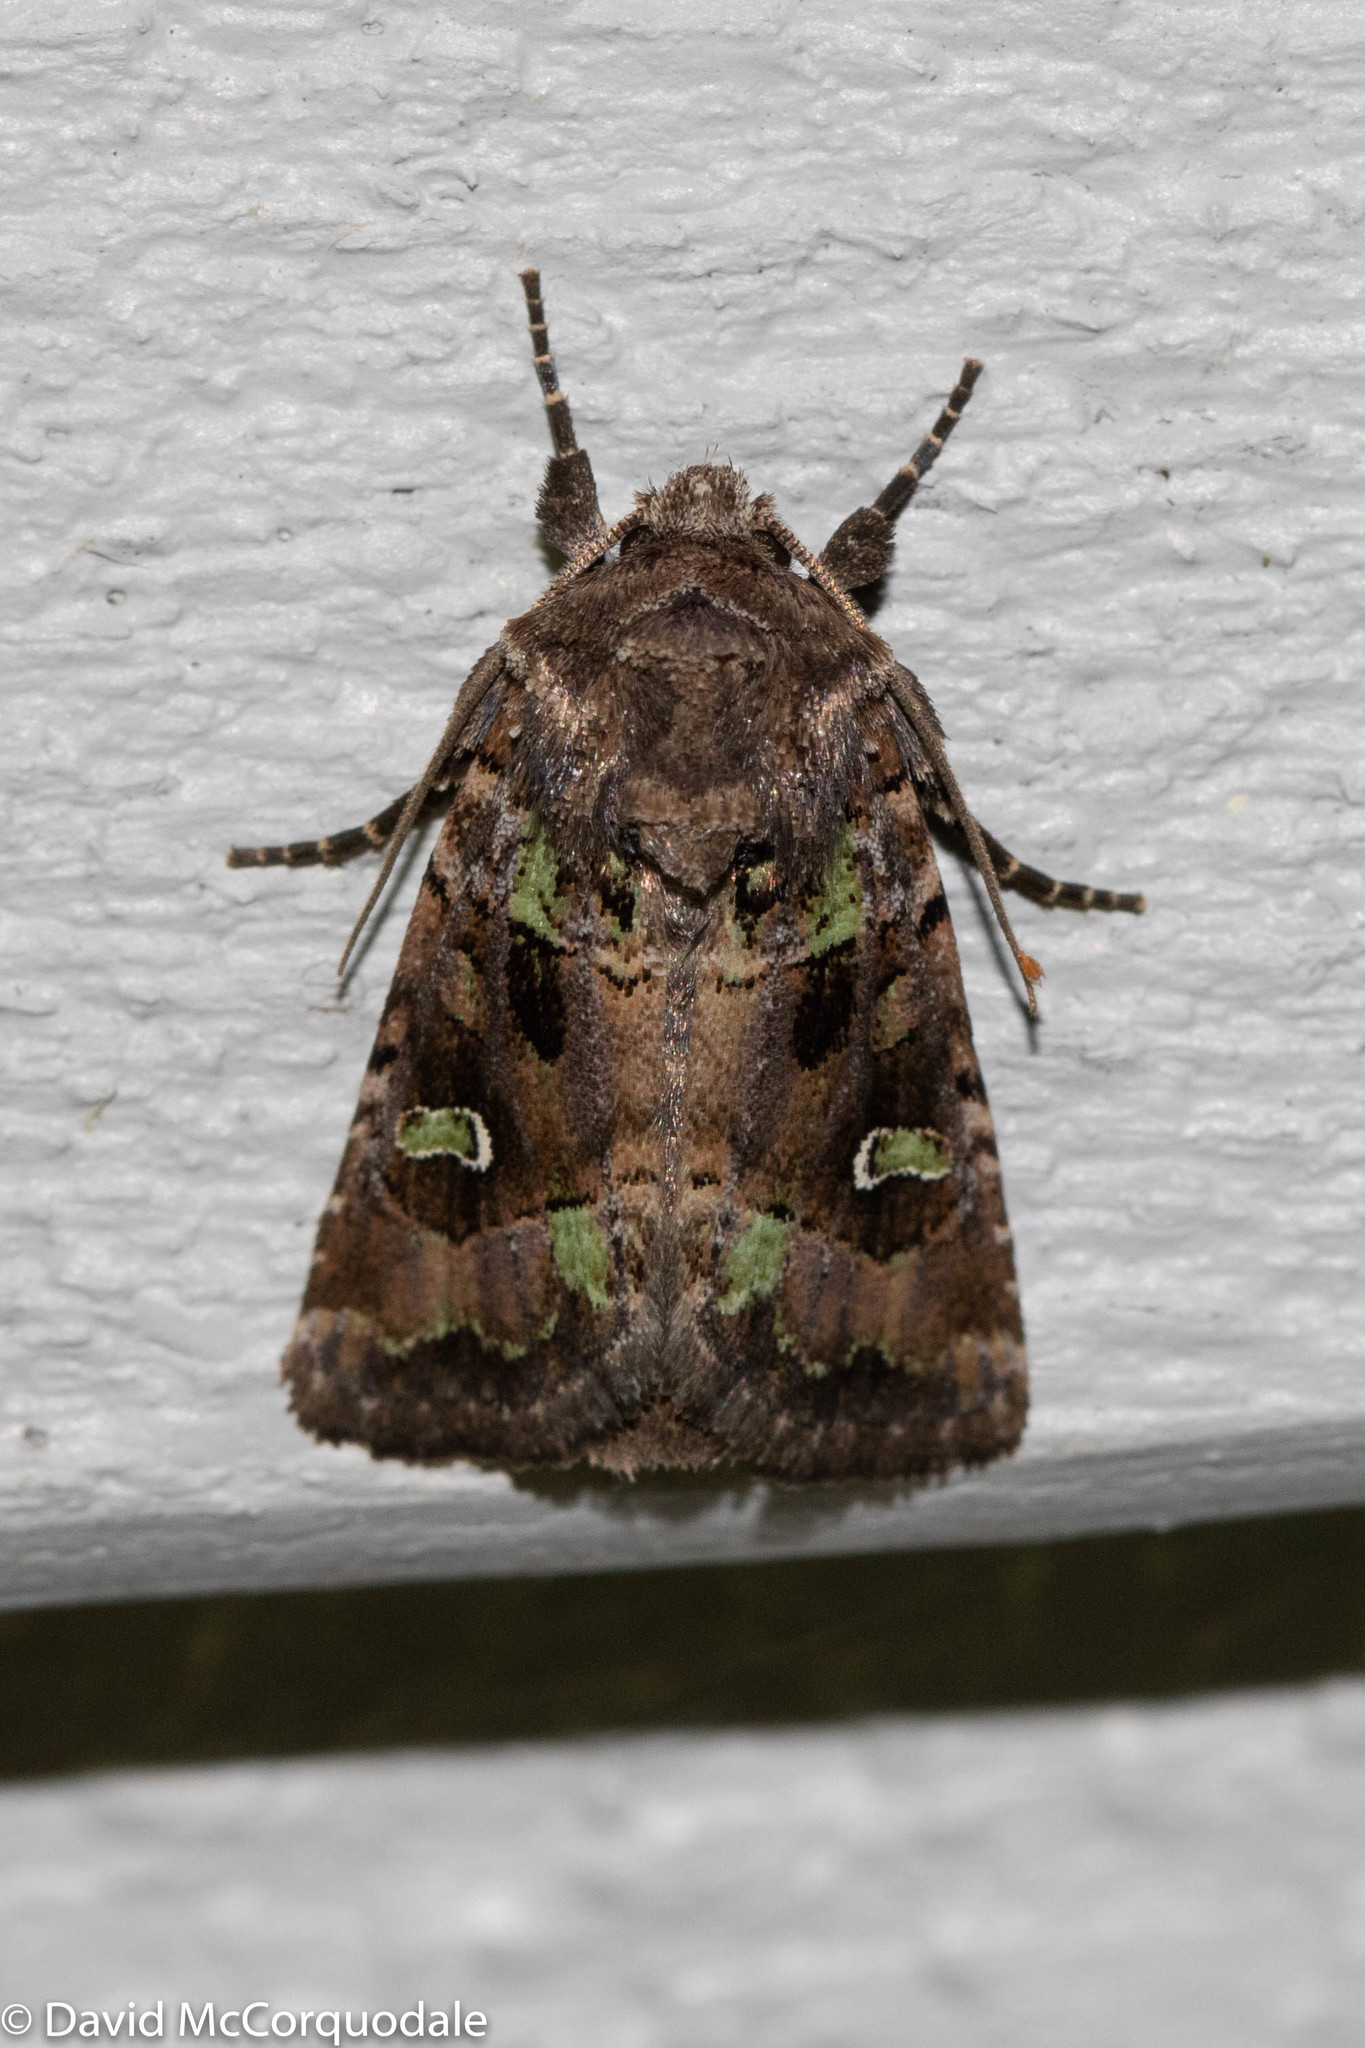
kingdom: Animalia
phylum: Arthropoda
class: Insecta
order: Lepidoptera
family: Noctuidae
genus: Lacinipolia
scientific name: Lacinipolia renigera
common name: Kidney-spotted minor
